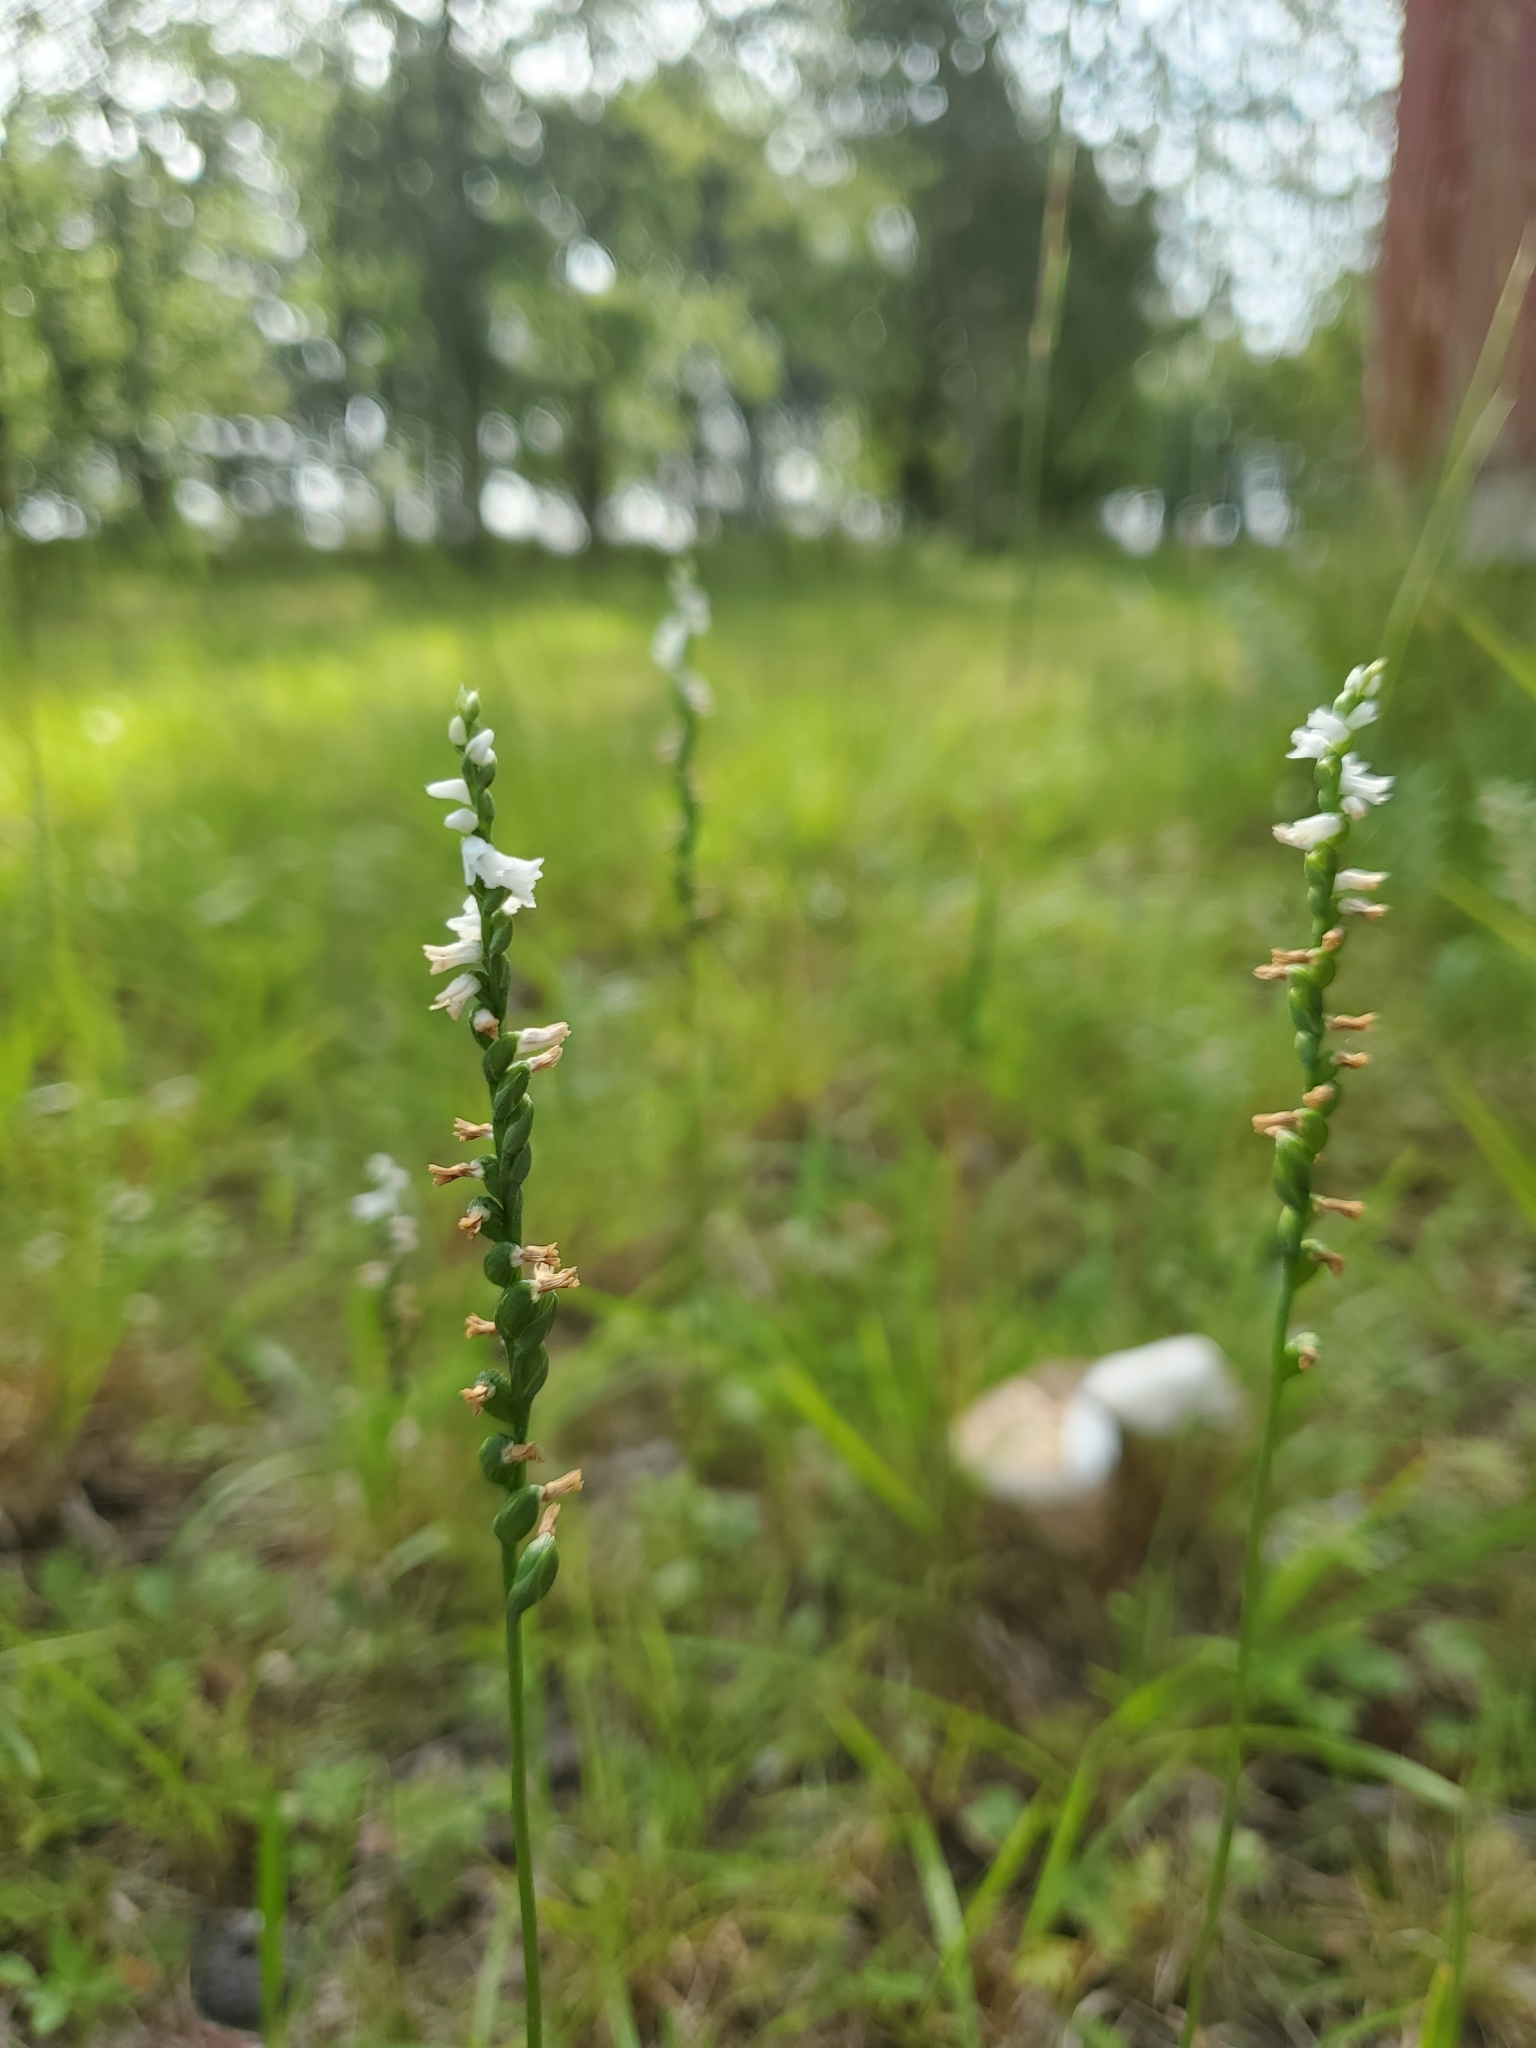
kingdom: Plantae
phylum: Tracheophyta
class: Liliopsida
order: Asparagales
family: Orchidaceae
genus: Spiranthes
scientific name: Spiranthes tuberosa
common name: Little ladies'-tresses
